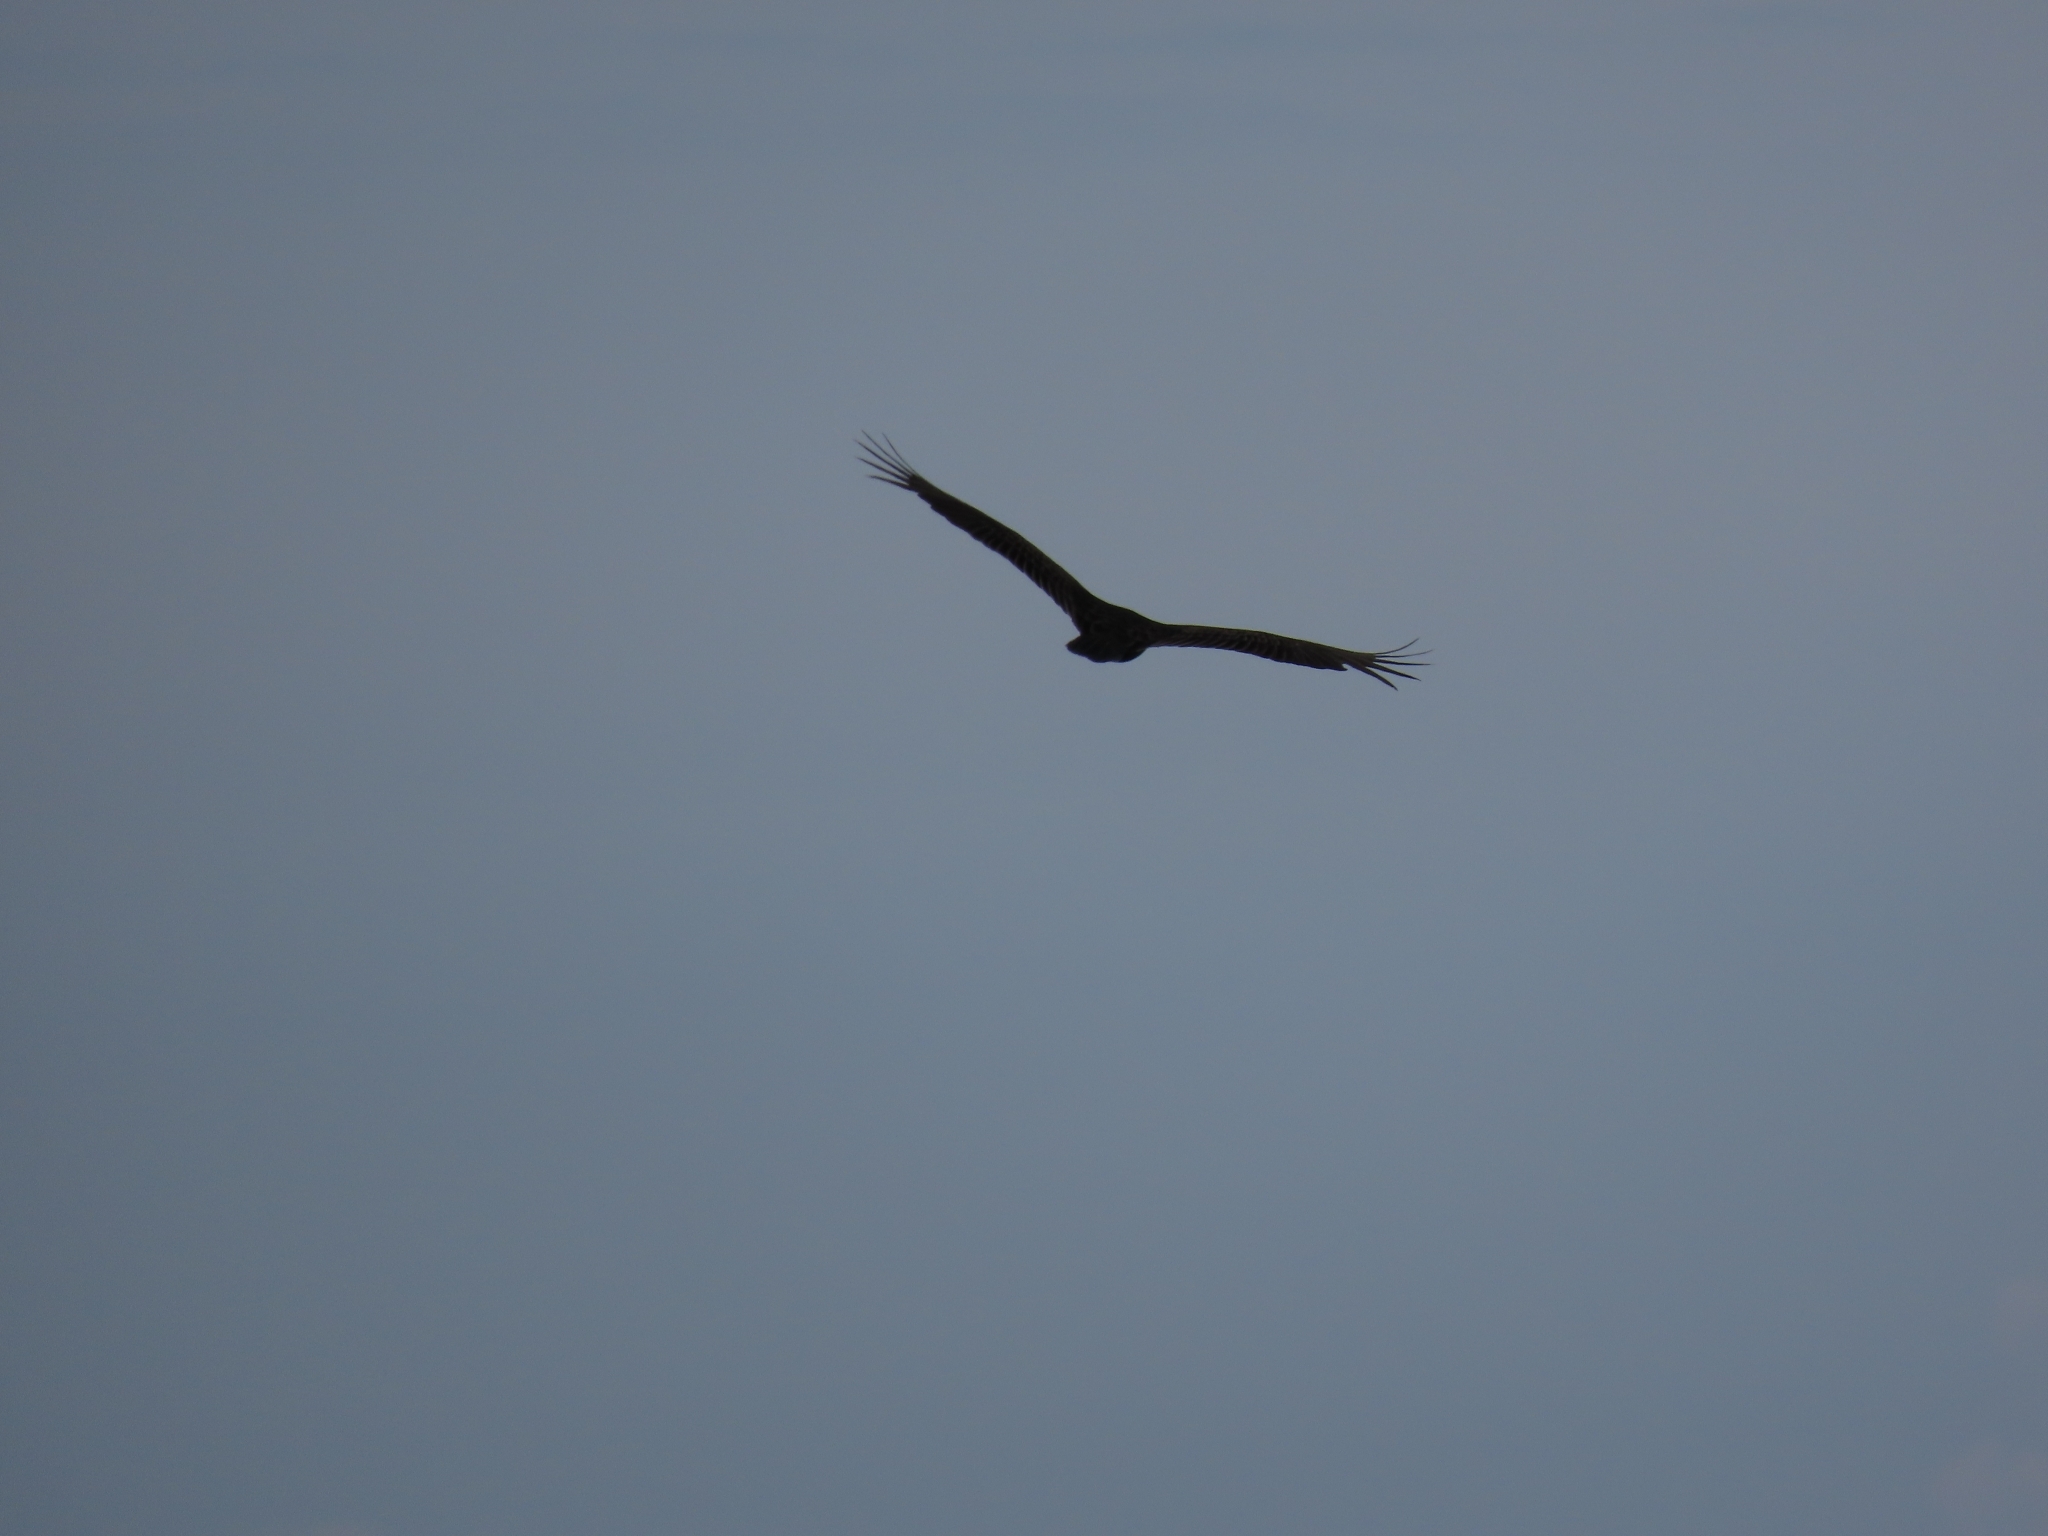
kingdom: Animalia
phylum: Chordata
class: Aves
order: Accipitriformes
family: Cathartidae
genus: Cathartes
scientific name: Cathartes aura
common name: Turkey vulture
